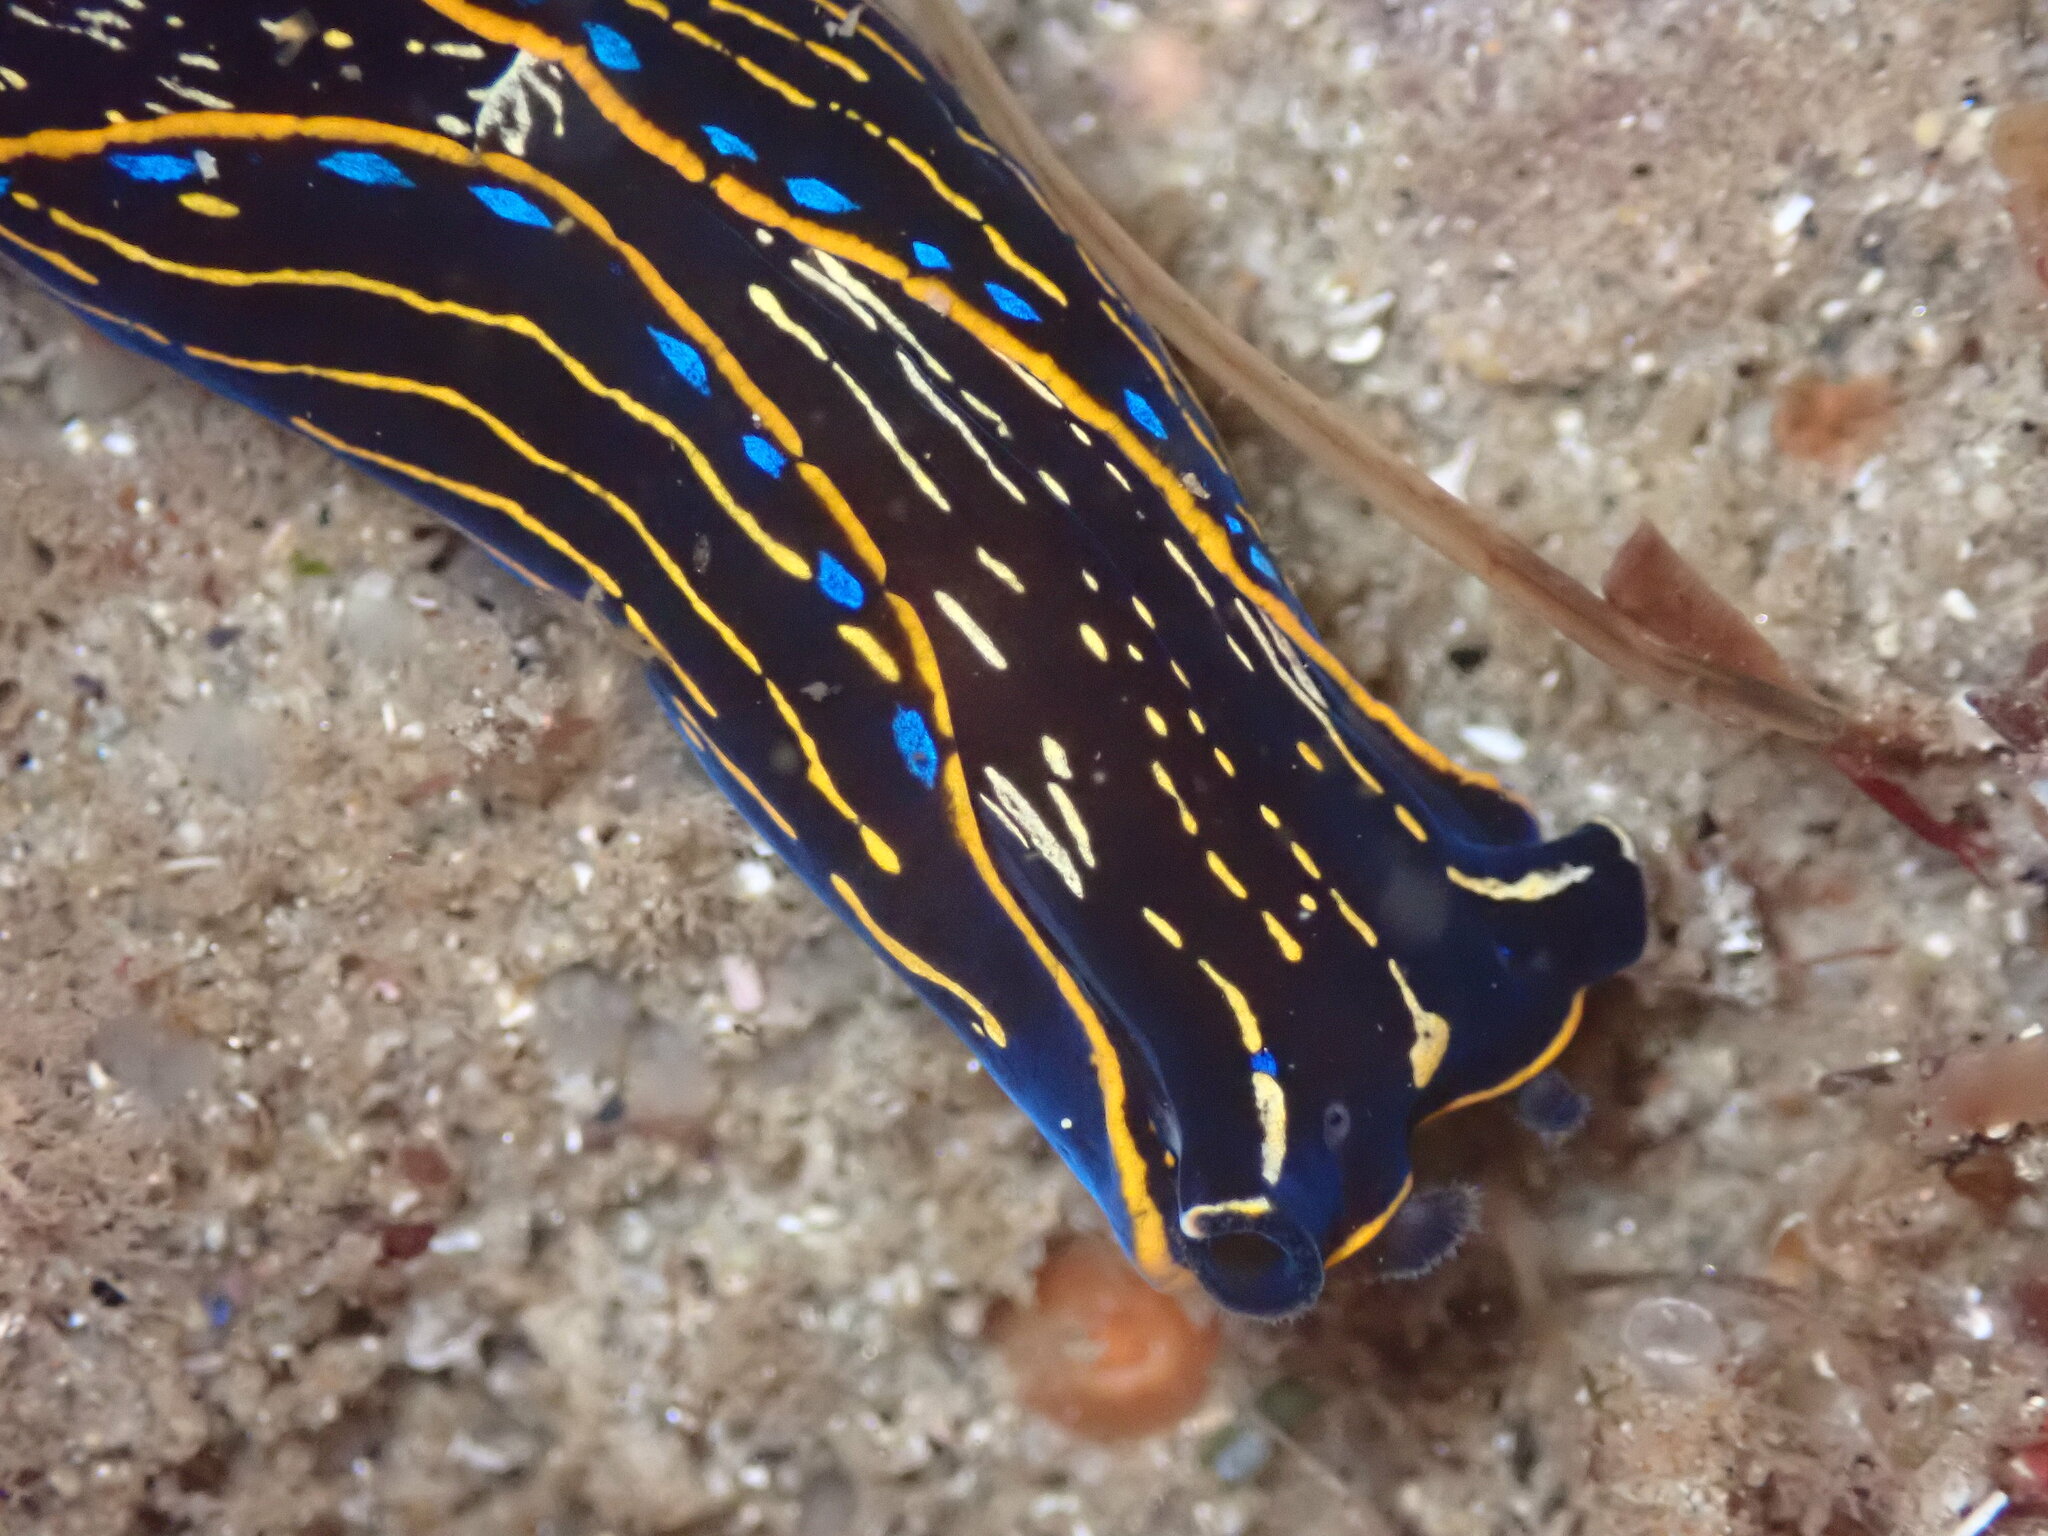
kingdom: Animalia
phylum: Mollusca
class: Gastropoda
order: Cephalaspidea
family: Aglajidae
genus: Navanax
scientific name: Navanax inermis
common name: California aglaja
